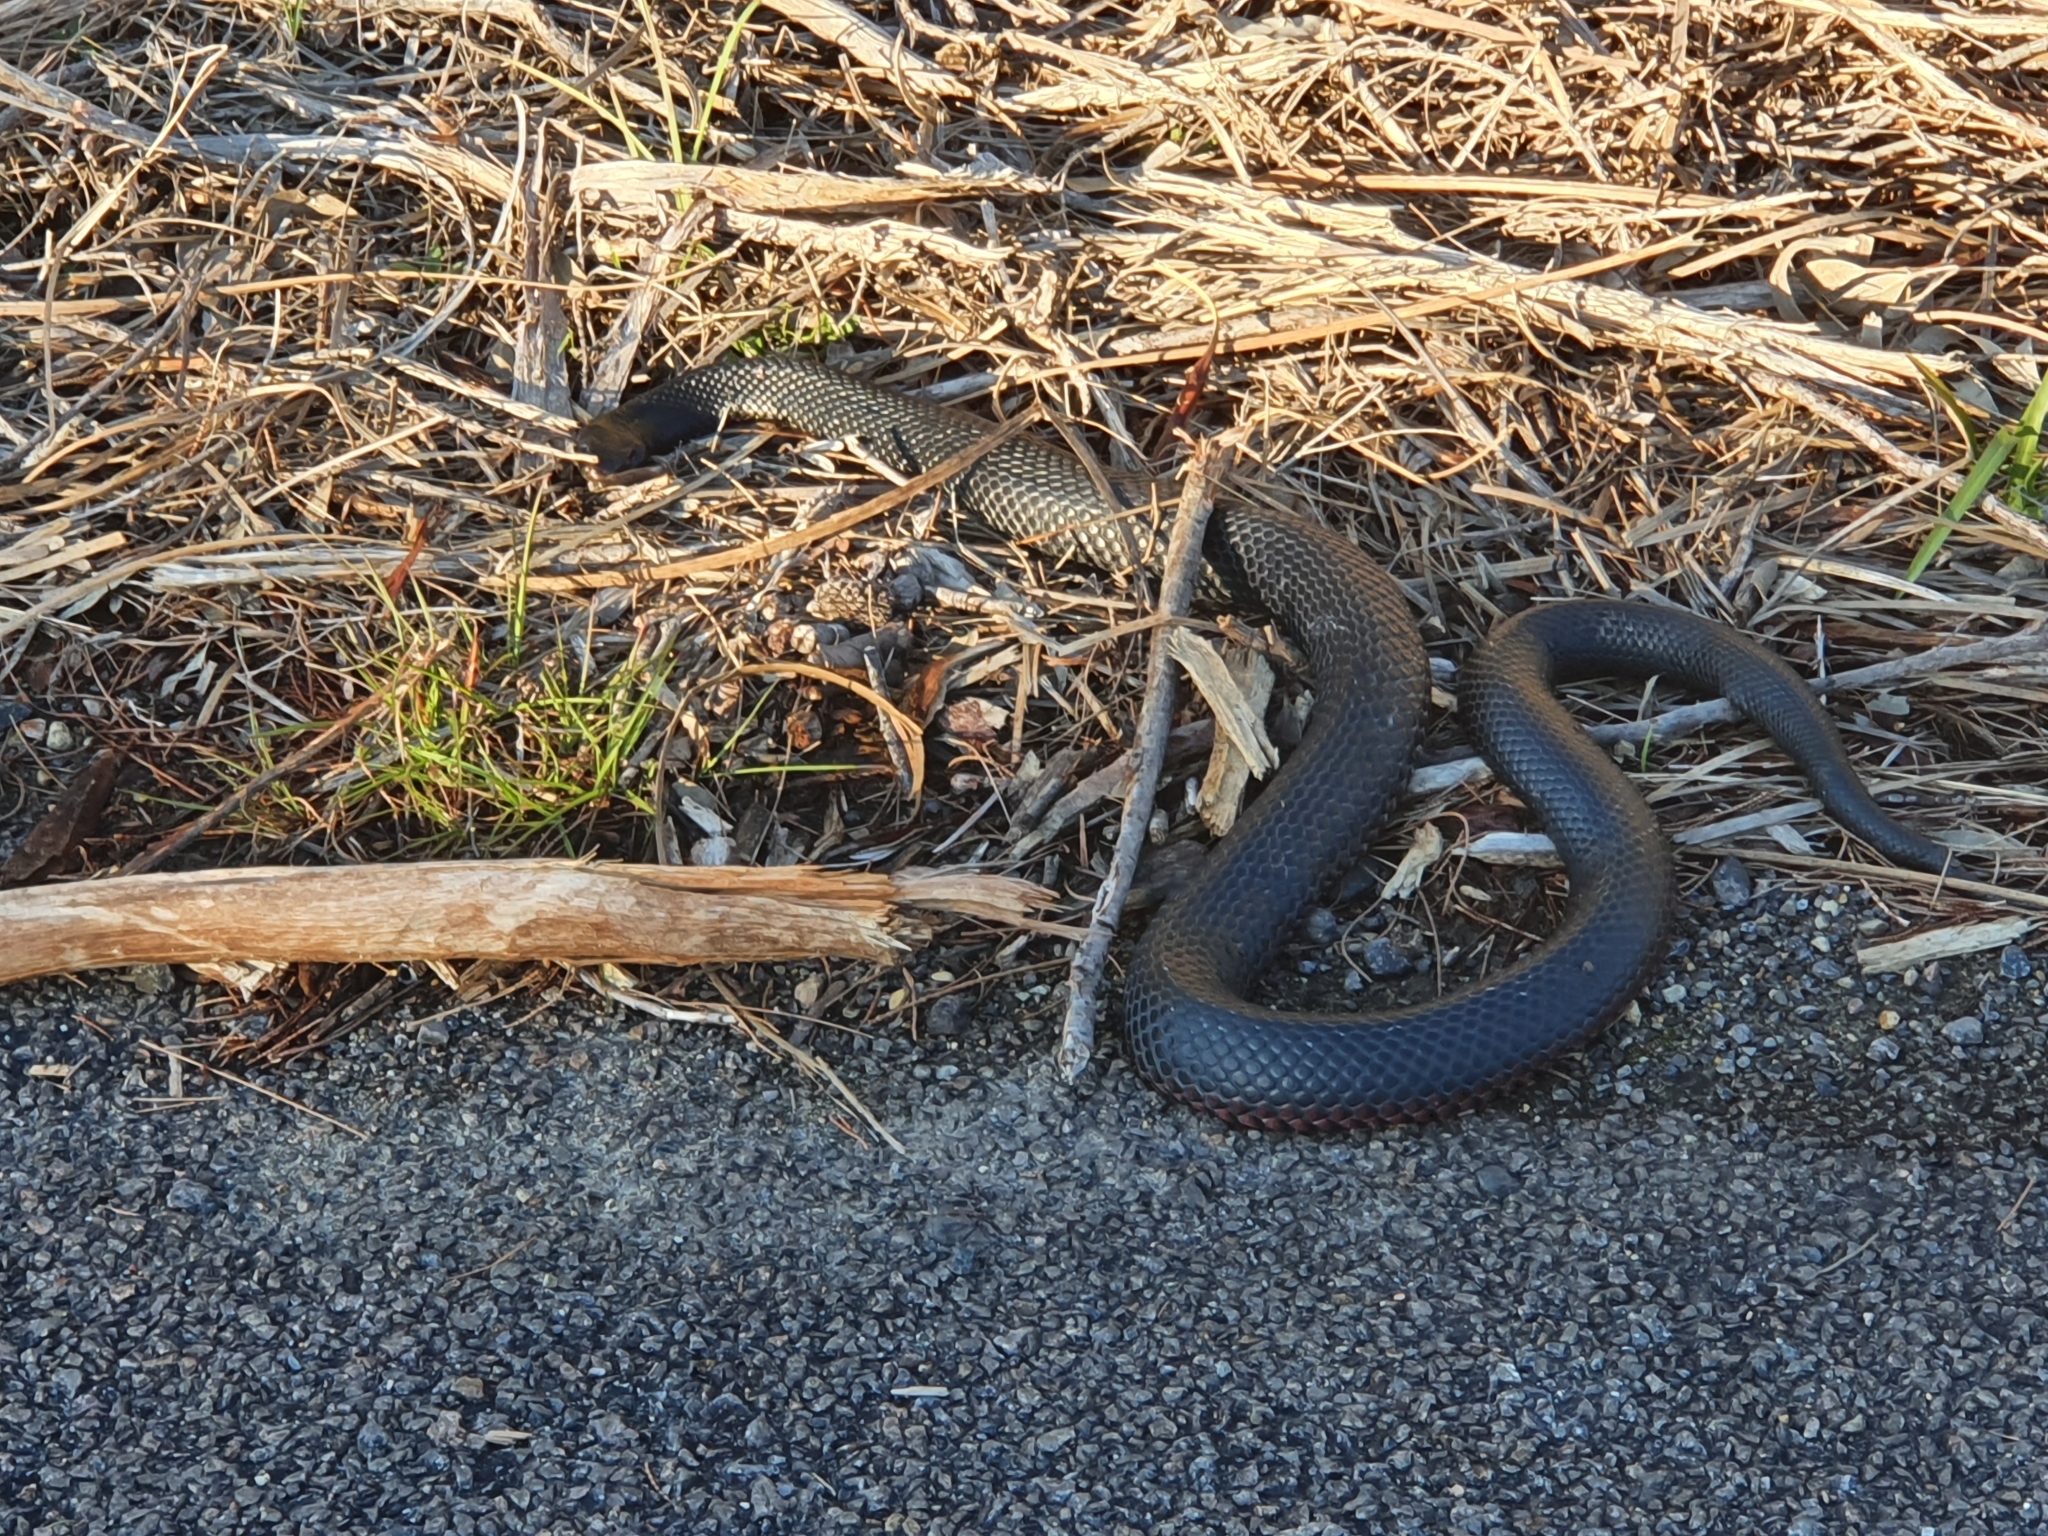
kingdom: Animalia
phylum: Chordata
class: Squamata
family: Elapidae
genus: Pseudechis
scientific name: Pseudechis porphyriacus
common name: Australian black snake
